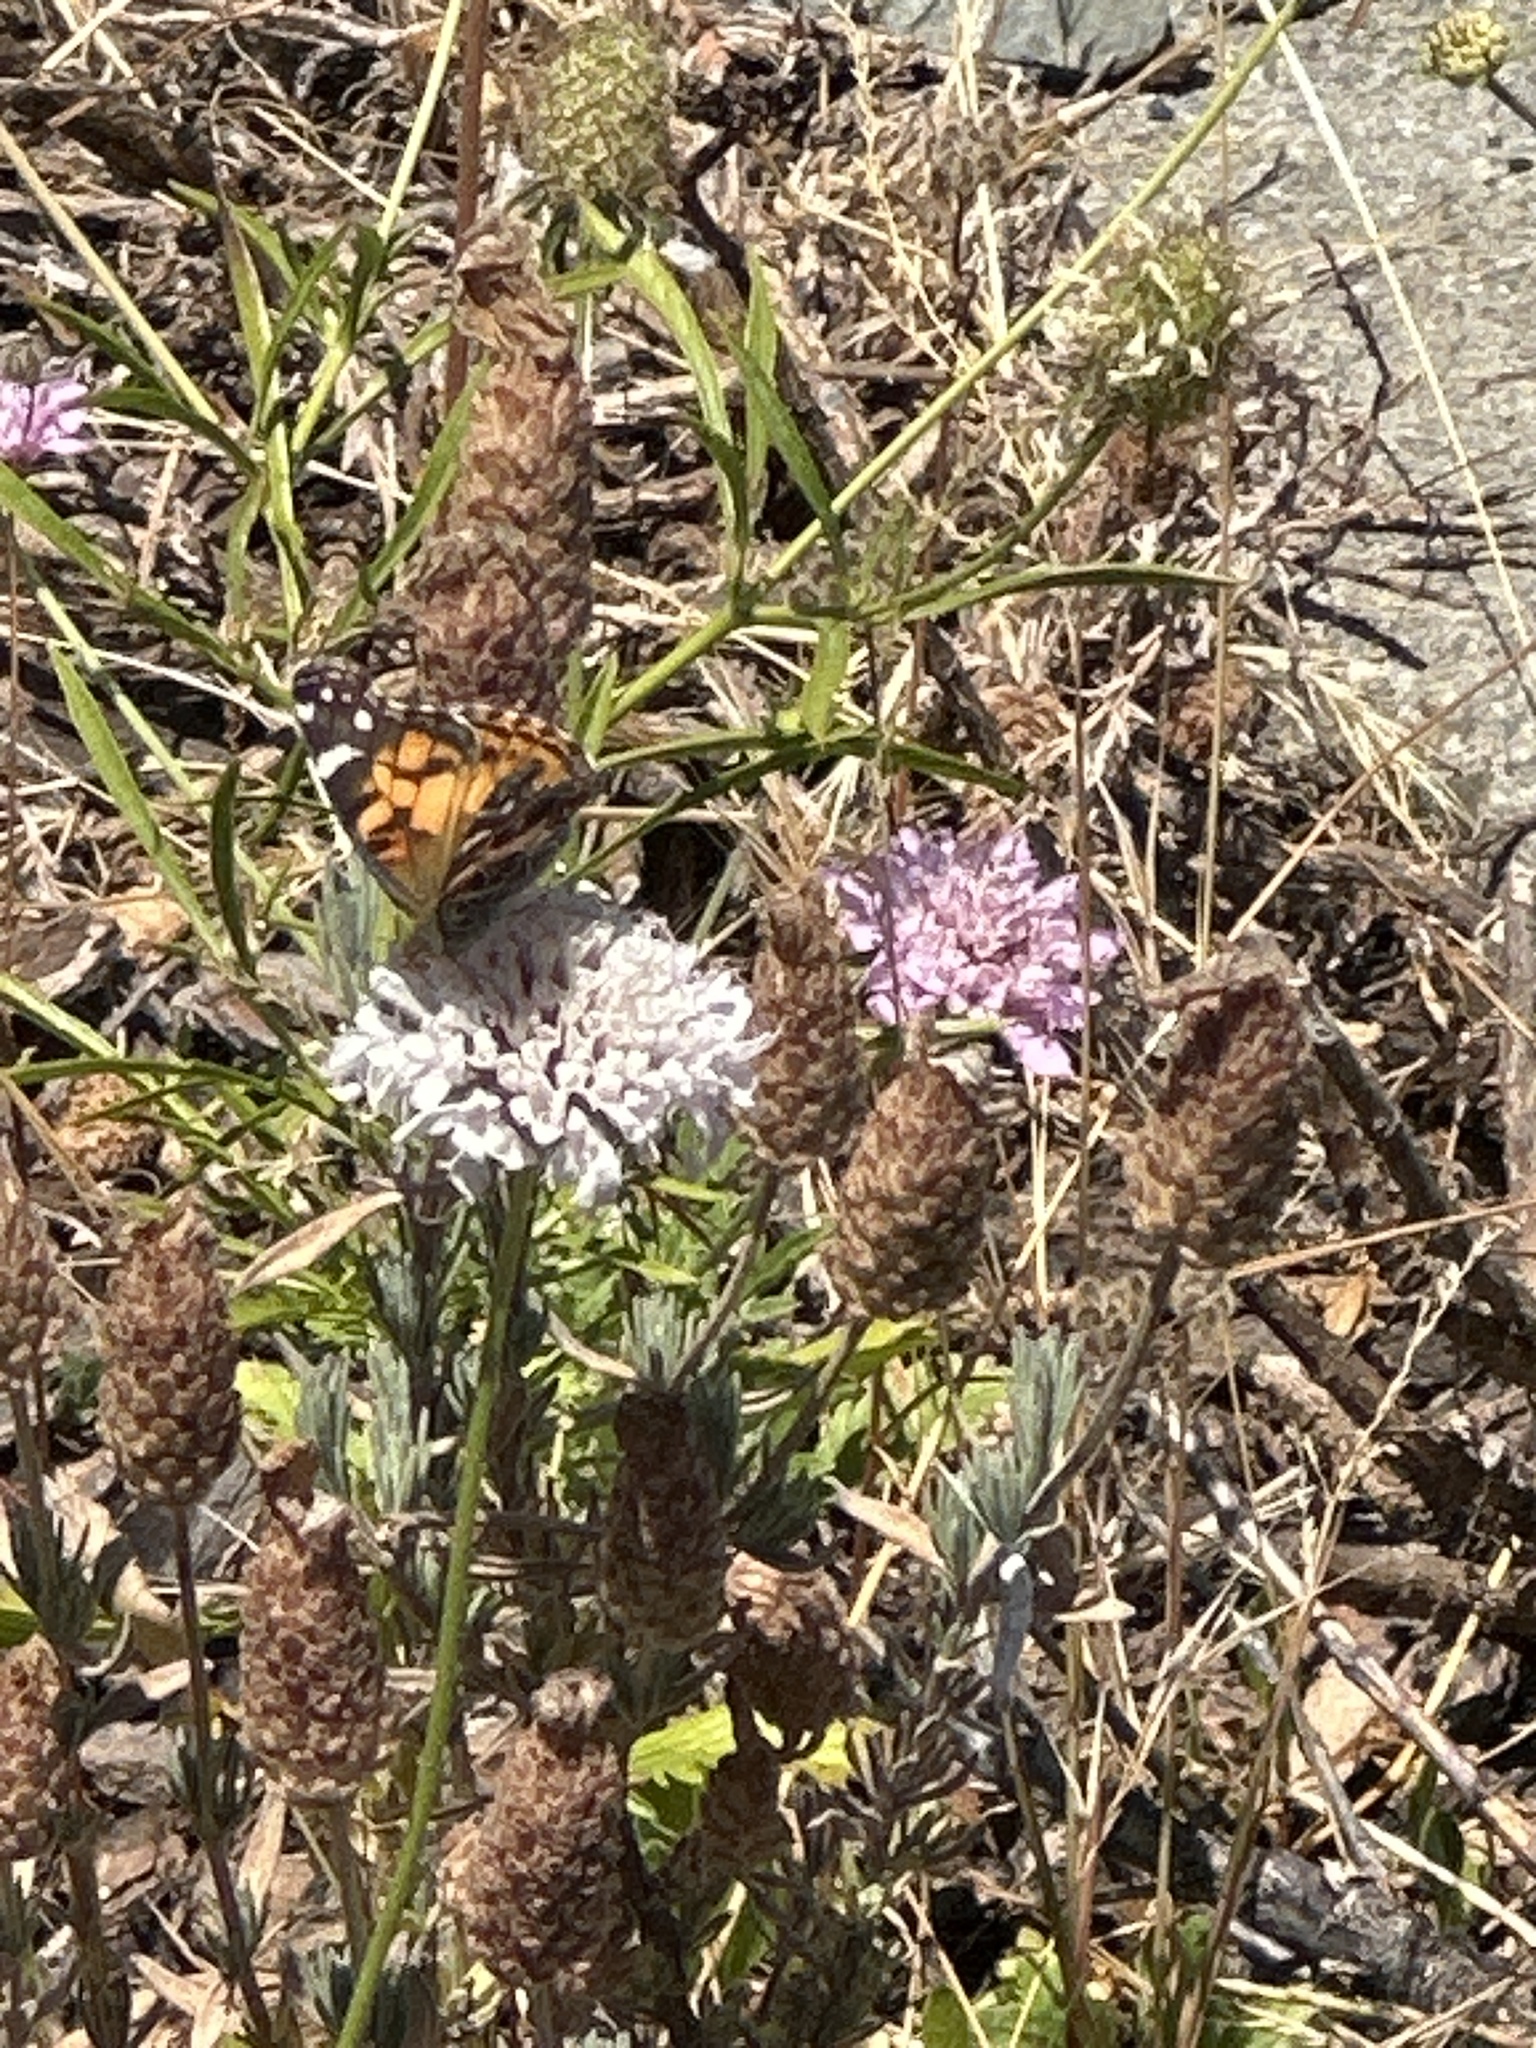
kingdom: Animalia
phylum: Arthropoda
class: Insecta
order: Lepidoptera
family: Nymphalidae
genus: Vanessa
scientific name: Vanessa virginiensis
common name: American lady
